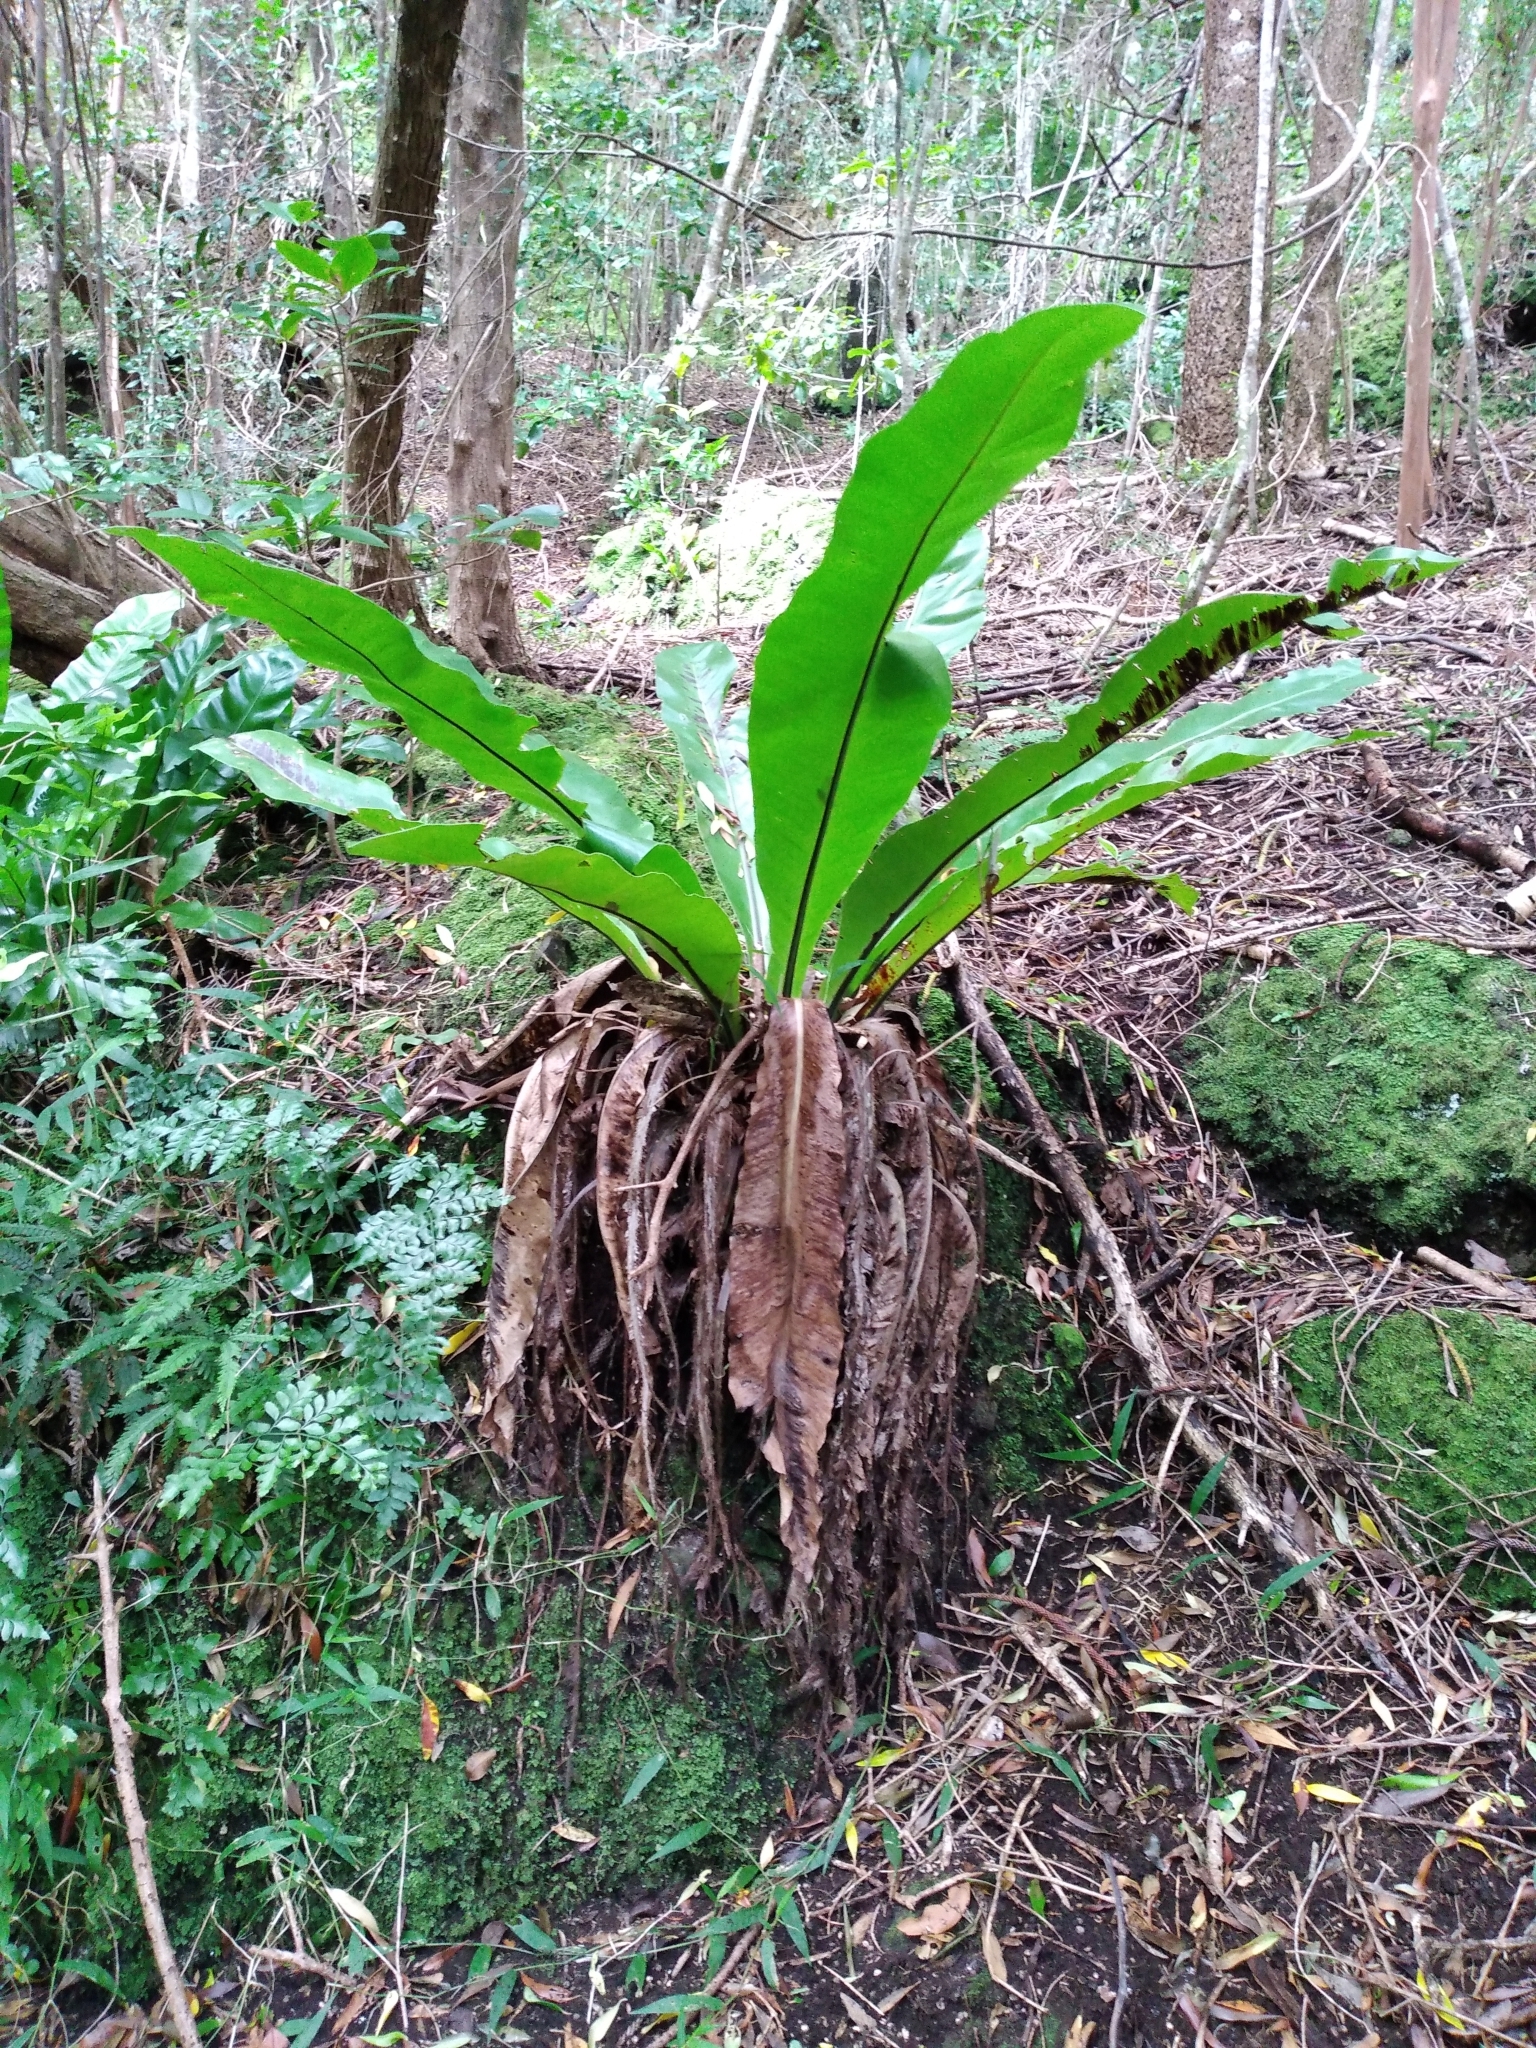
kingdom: Plantae
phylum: Tracheophyta
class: Polypodiopsida
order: Polypodiales
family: Aspleniaceae
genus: Asplenium
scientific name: Asplenium australasicum
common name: Bird's-nest fern
